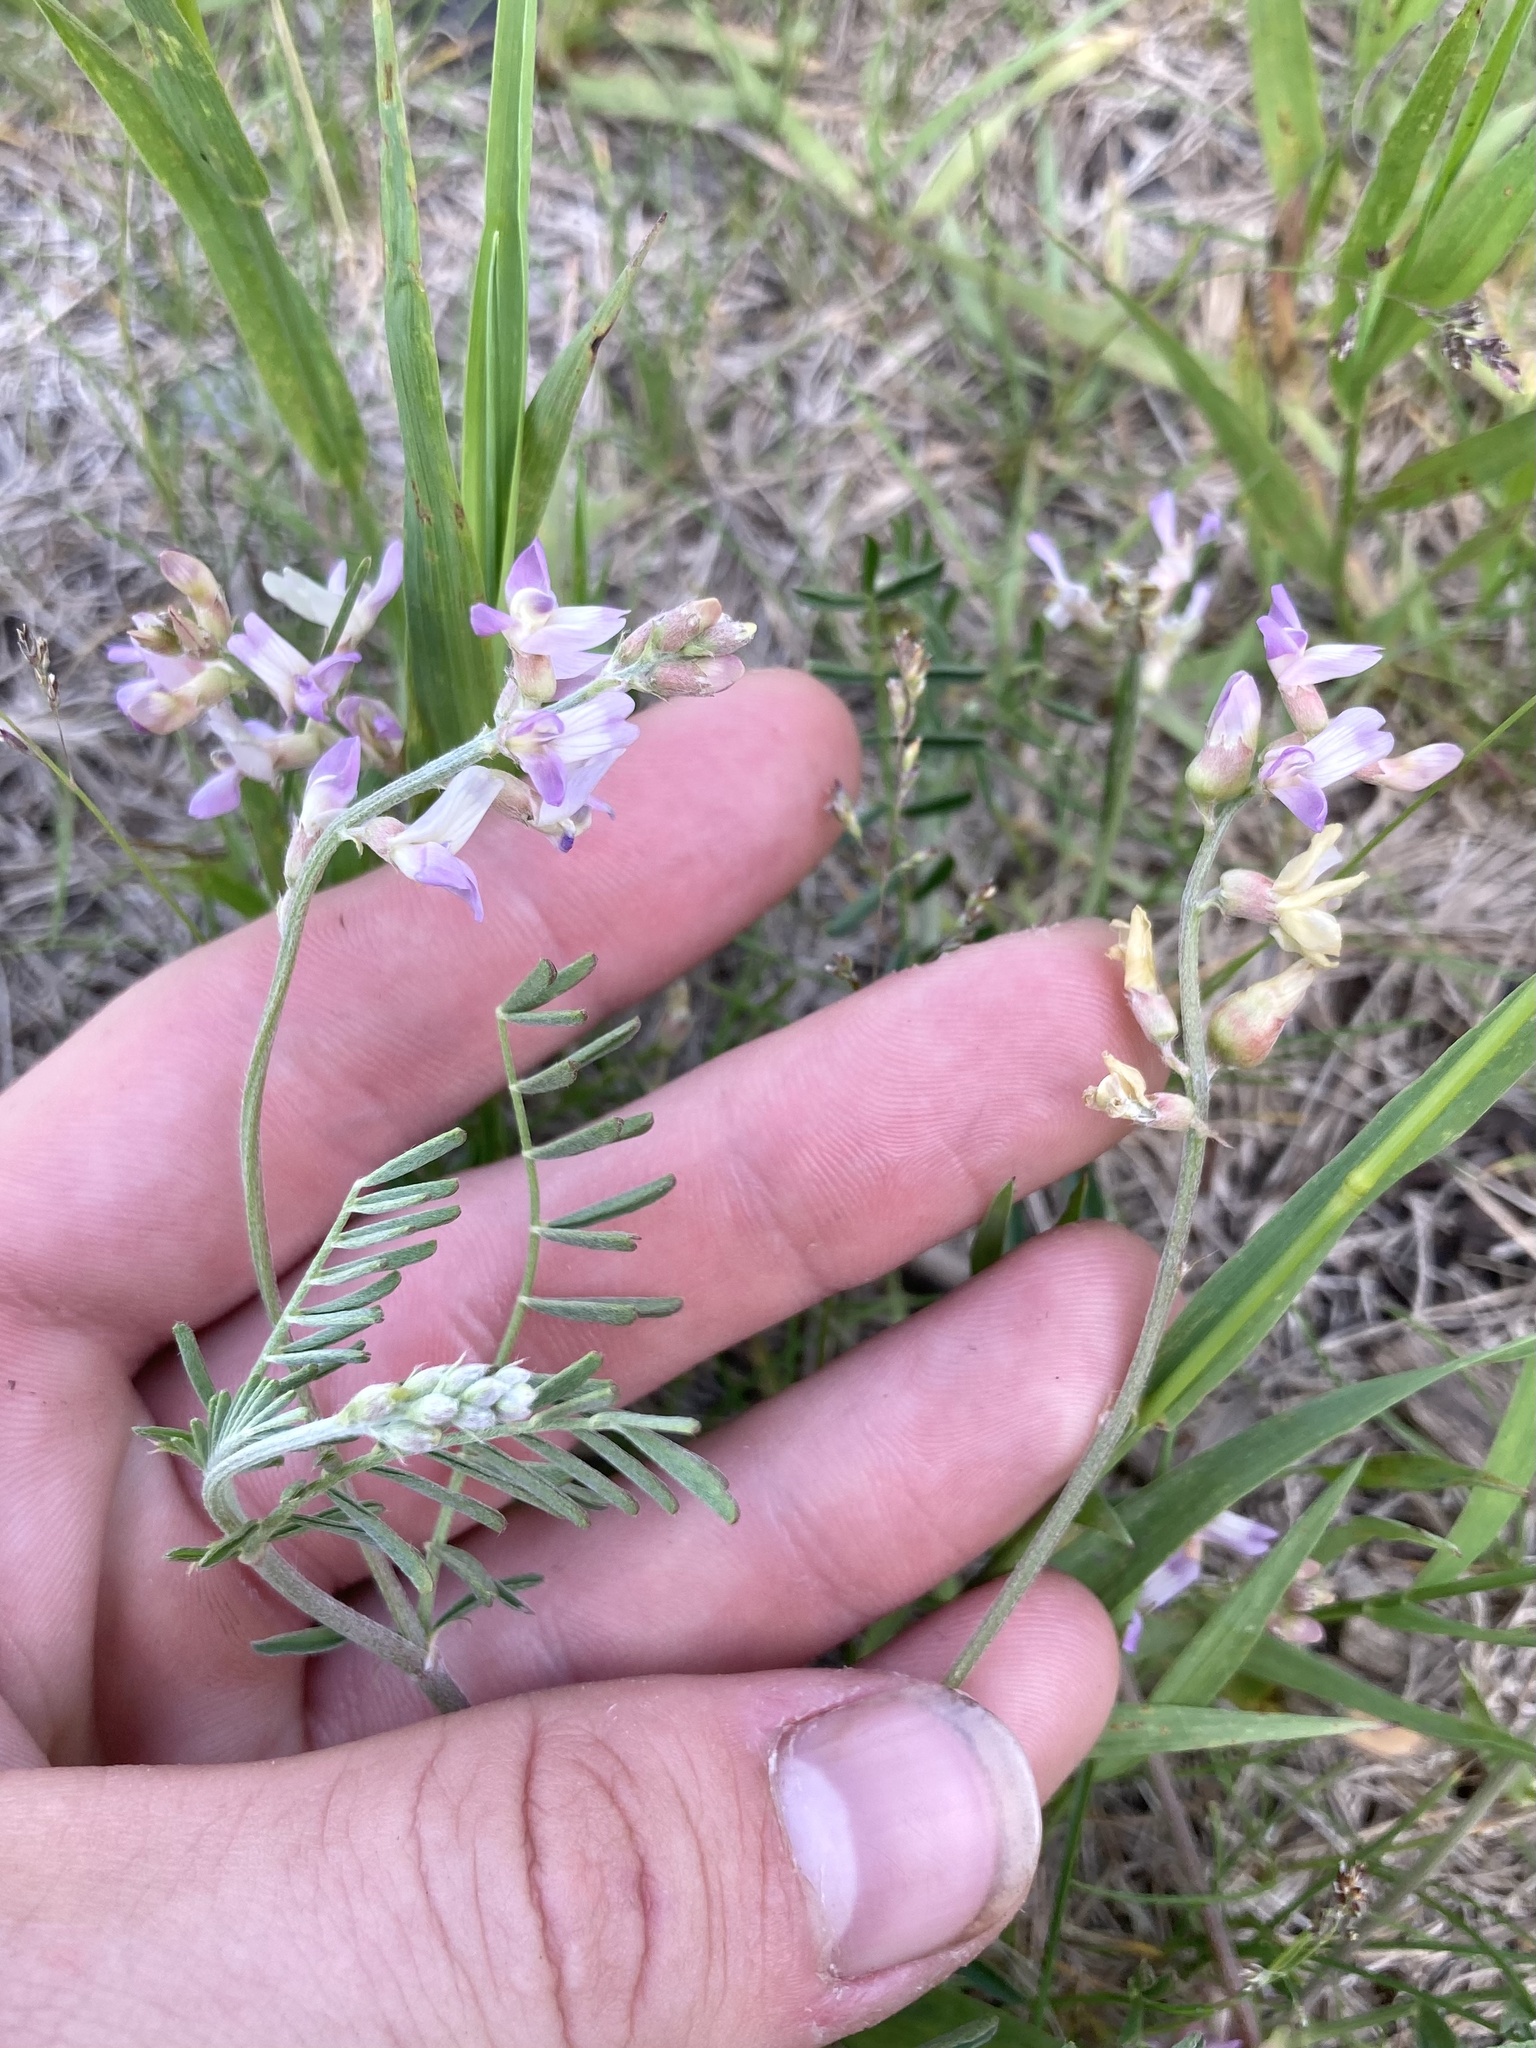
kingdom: Plantae
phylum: Tracheophyta
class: Magnoliopsida
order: Fabales
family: Fabaceae
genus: Astragalus
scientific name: Astragalus flexuosus
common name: Pliant milk-vetch
